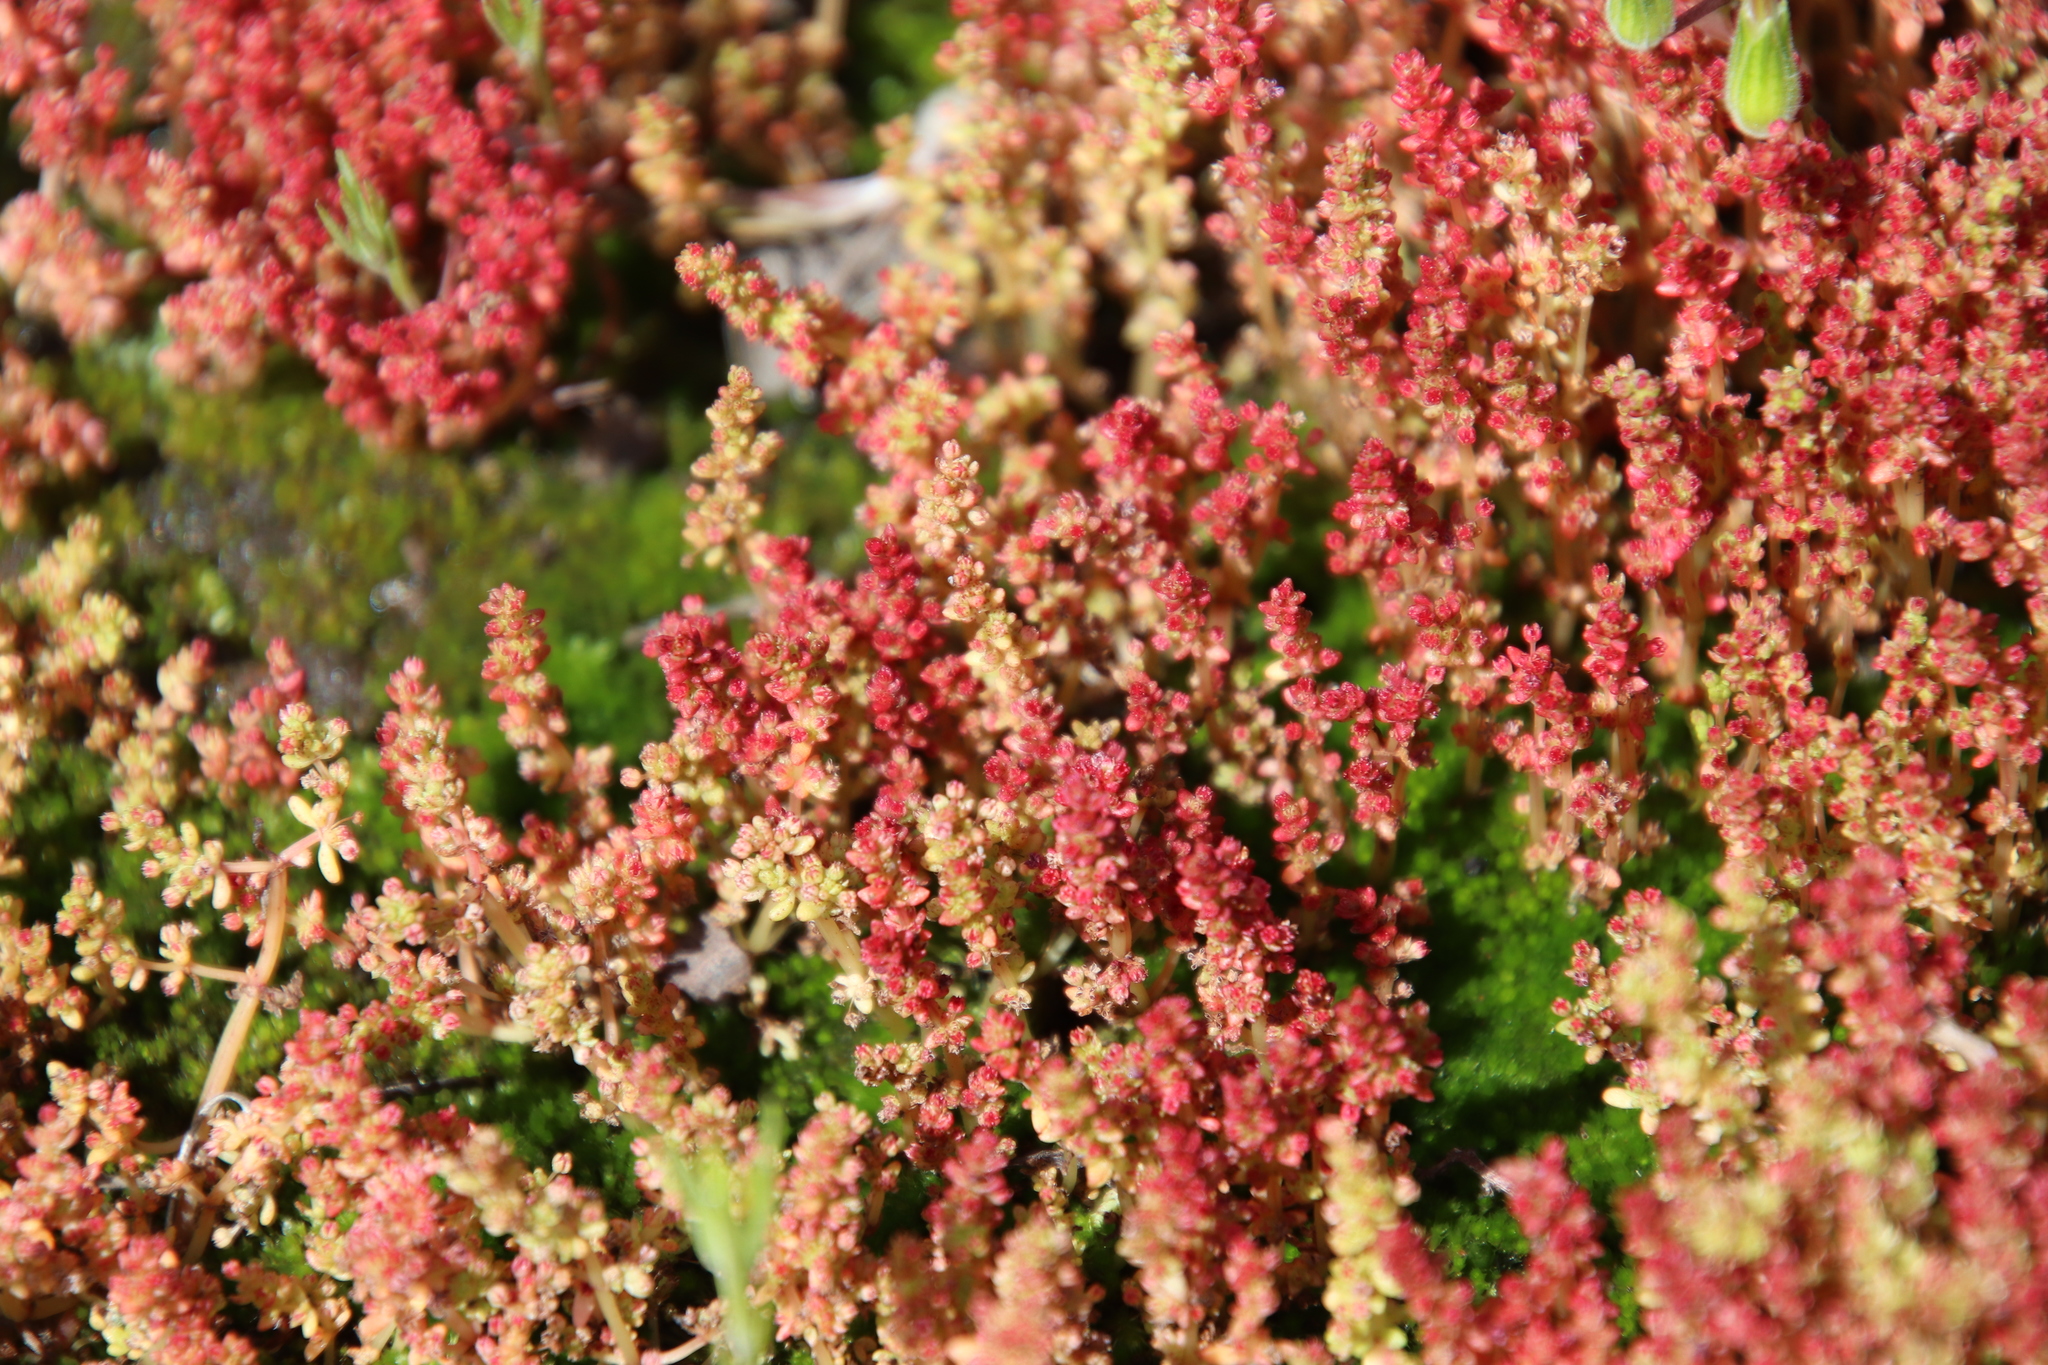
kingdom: Plantae
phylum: Tracheophyta
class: Magnoliopsida
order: Saxifragales
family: Crassulaceae
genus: Crassula
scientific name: Crassula connata
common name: Erect pygmyweed
